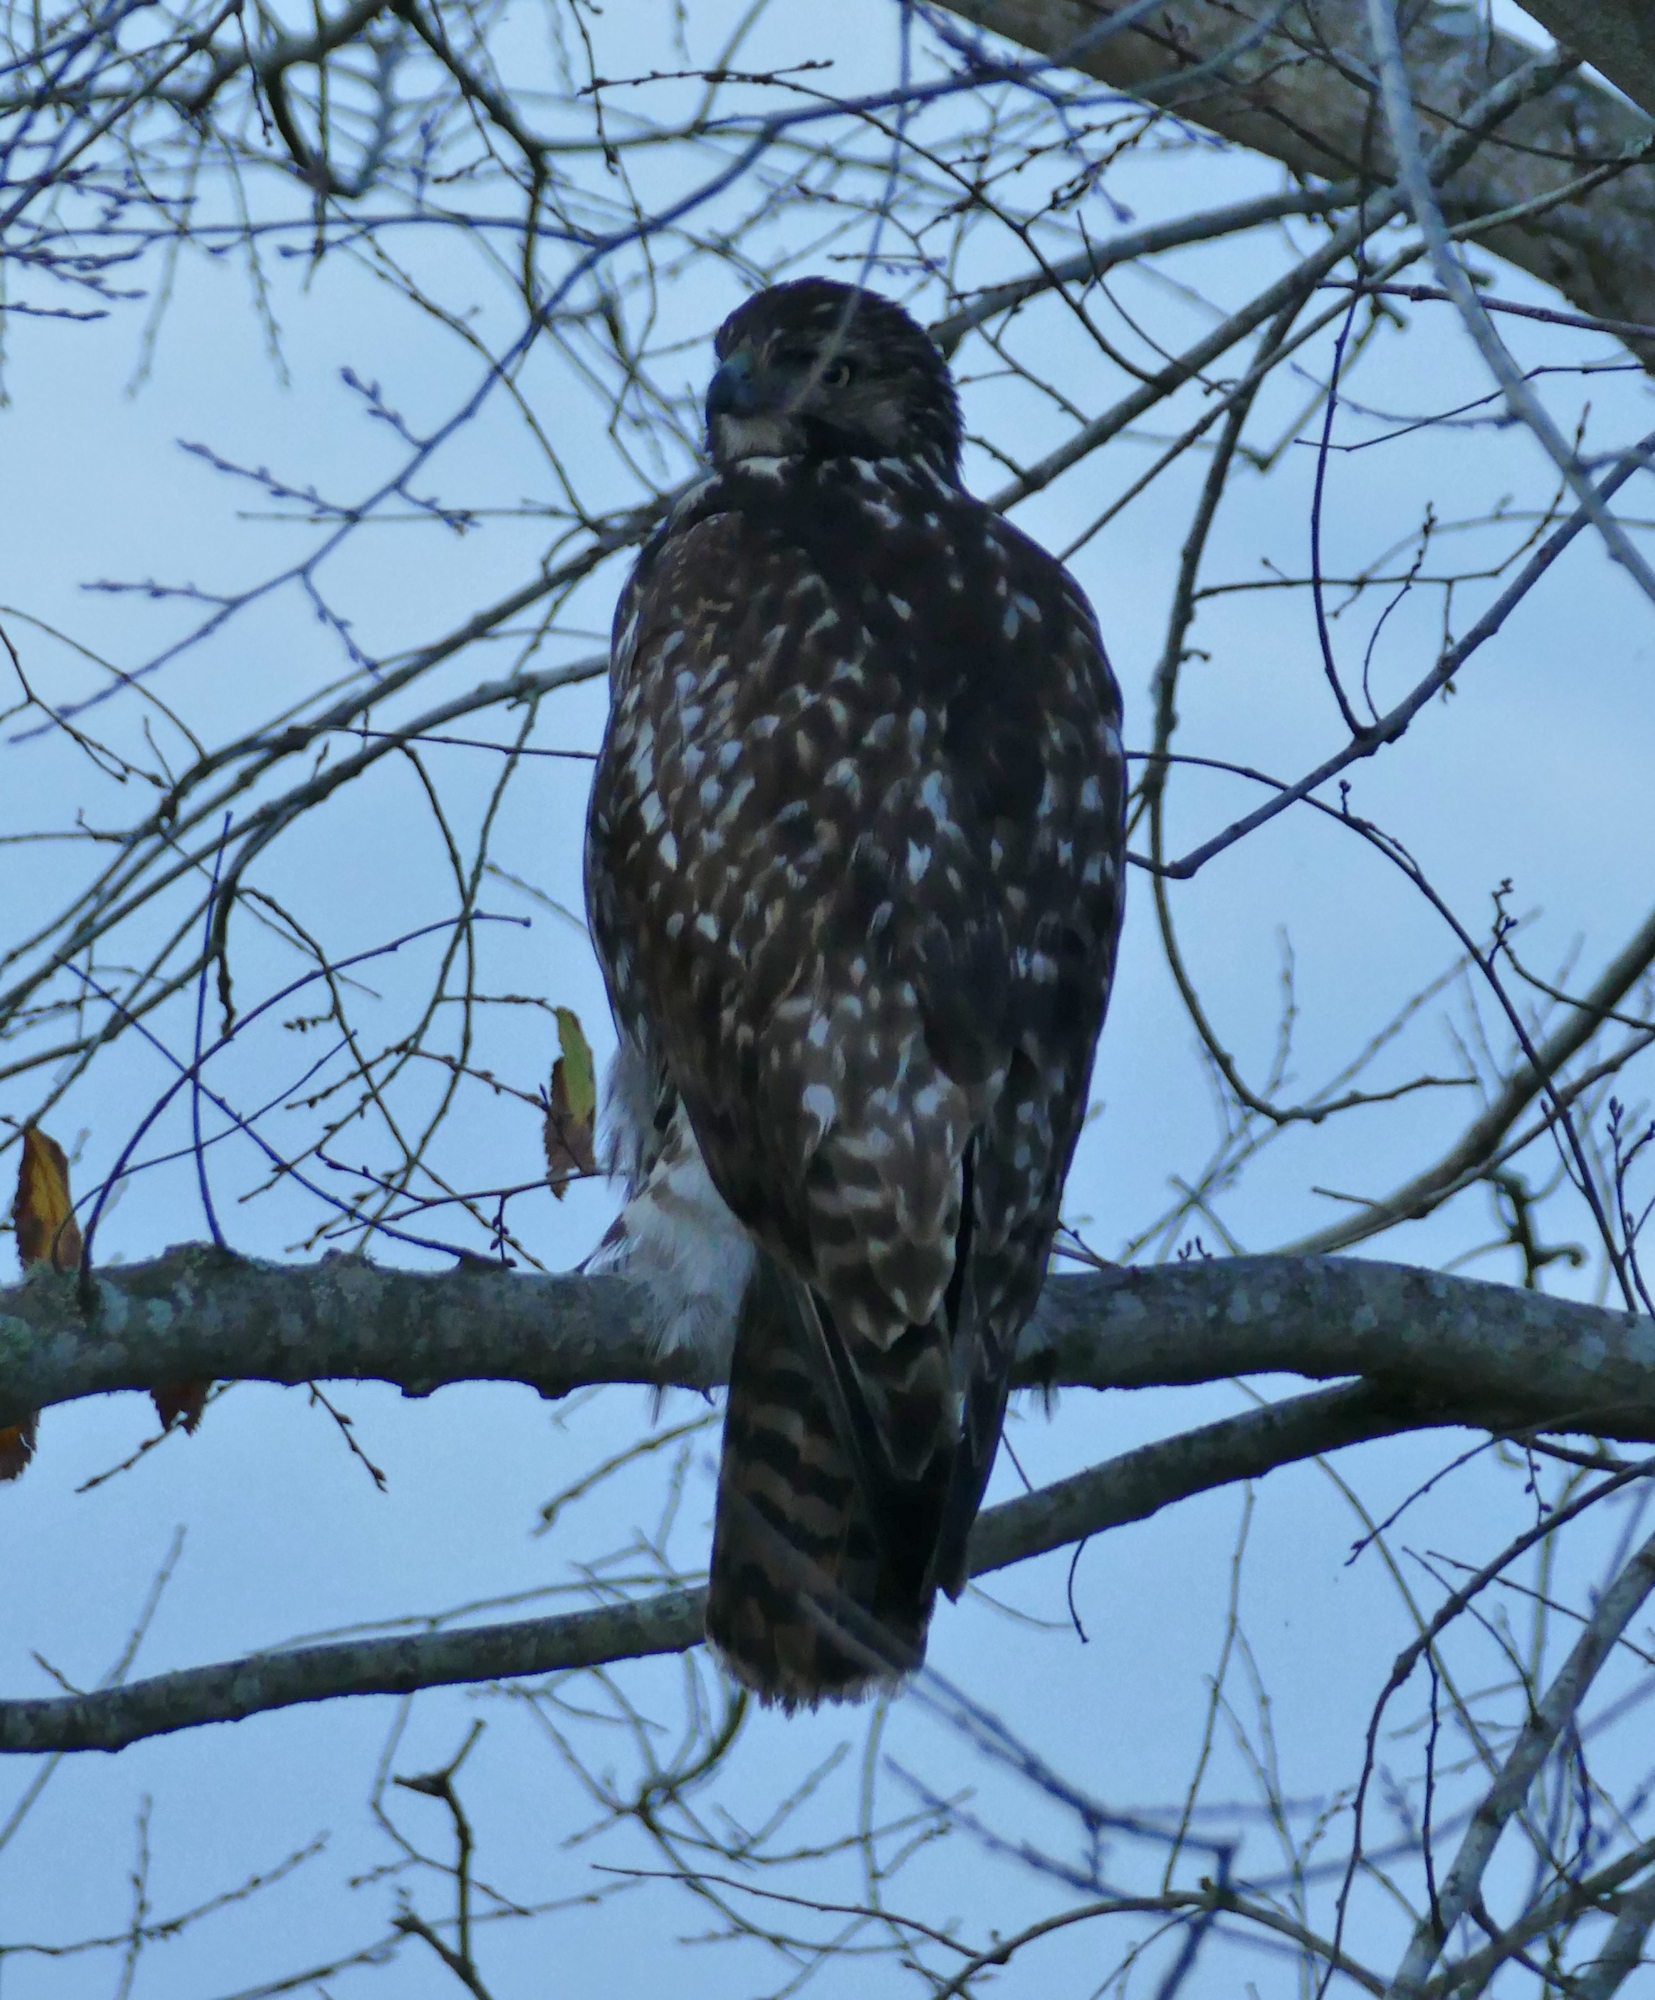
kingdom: Animalia
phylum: Chordata
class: Aves
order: Accipitriformes
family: Accipitridae
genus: Buteo
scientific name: Buteo jamaicensis
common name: Red-tailed hawk
